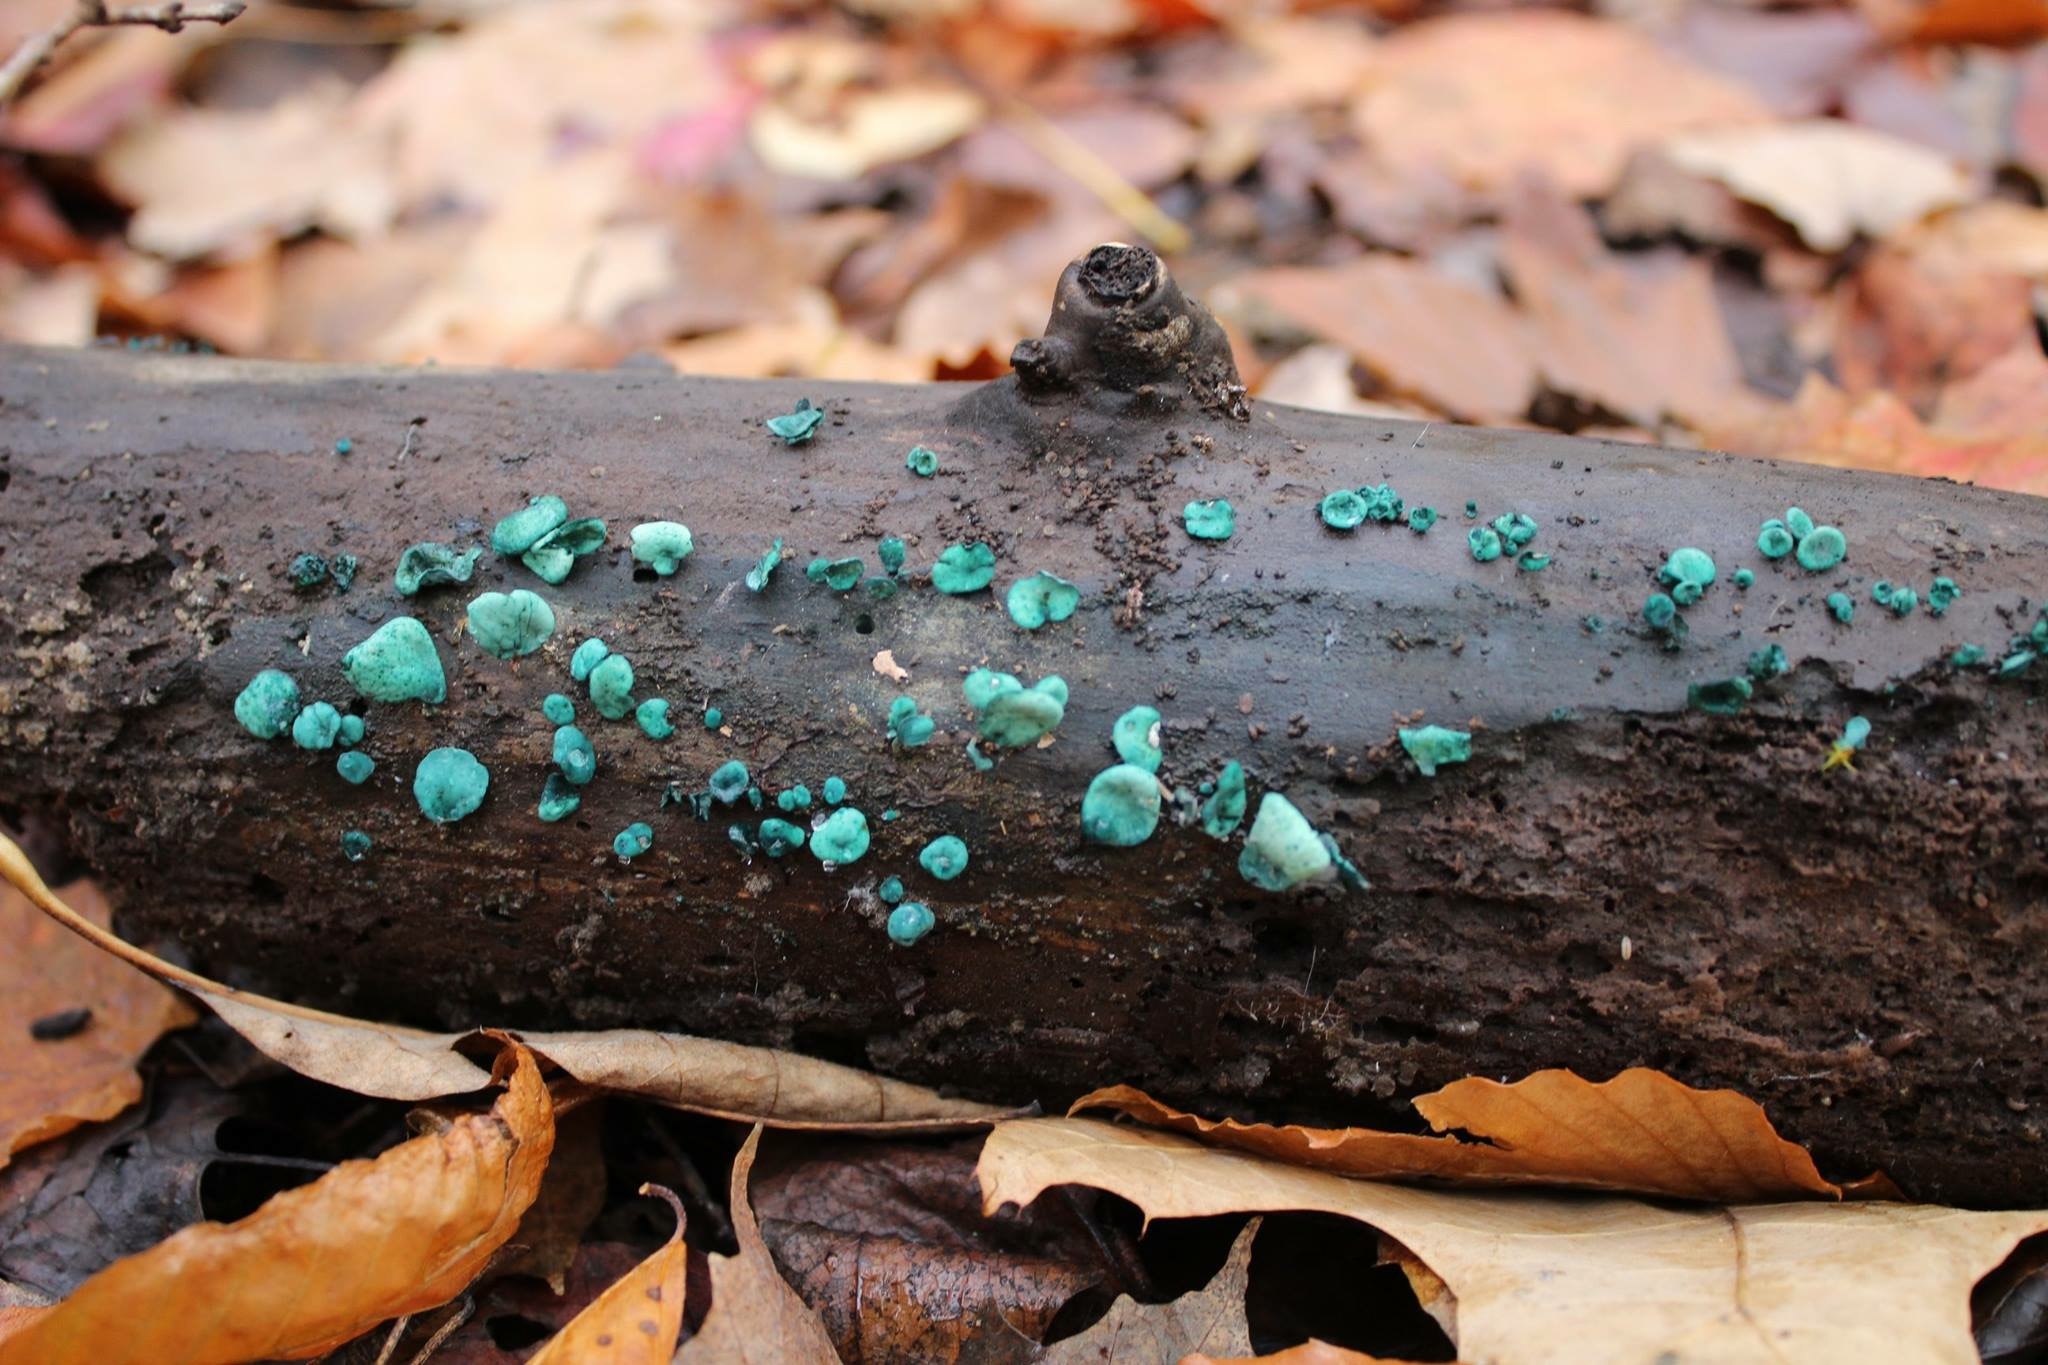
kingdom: Fungi
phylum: Ascomycota
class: Leotiomycetes
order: Helotiales
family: Chlorociboriaceae
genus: Chlorociboria
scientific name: Chlorociboria aeruginascens
